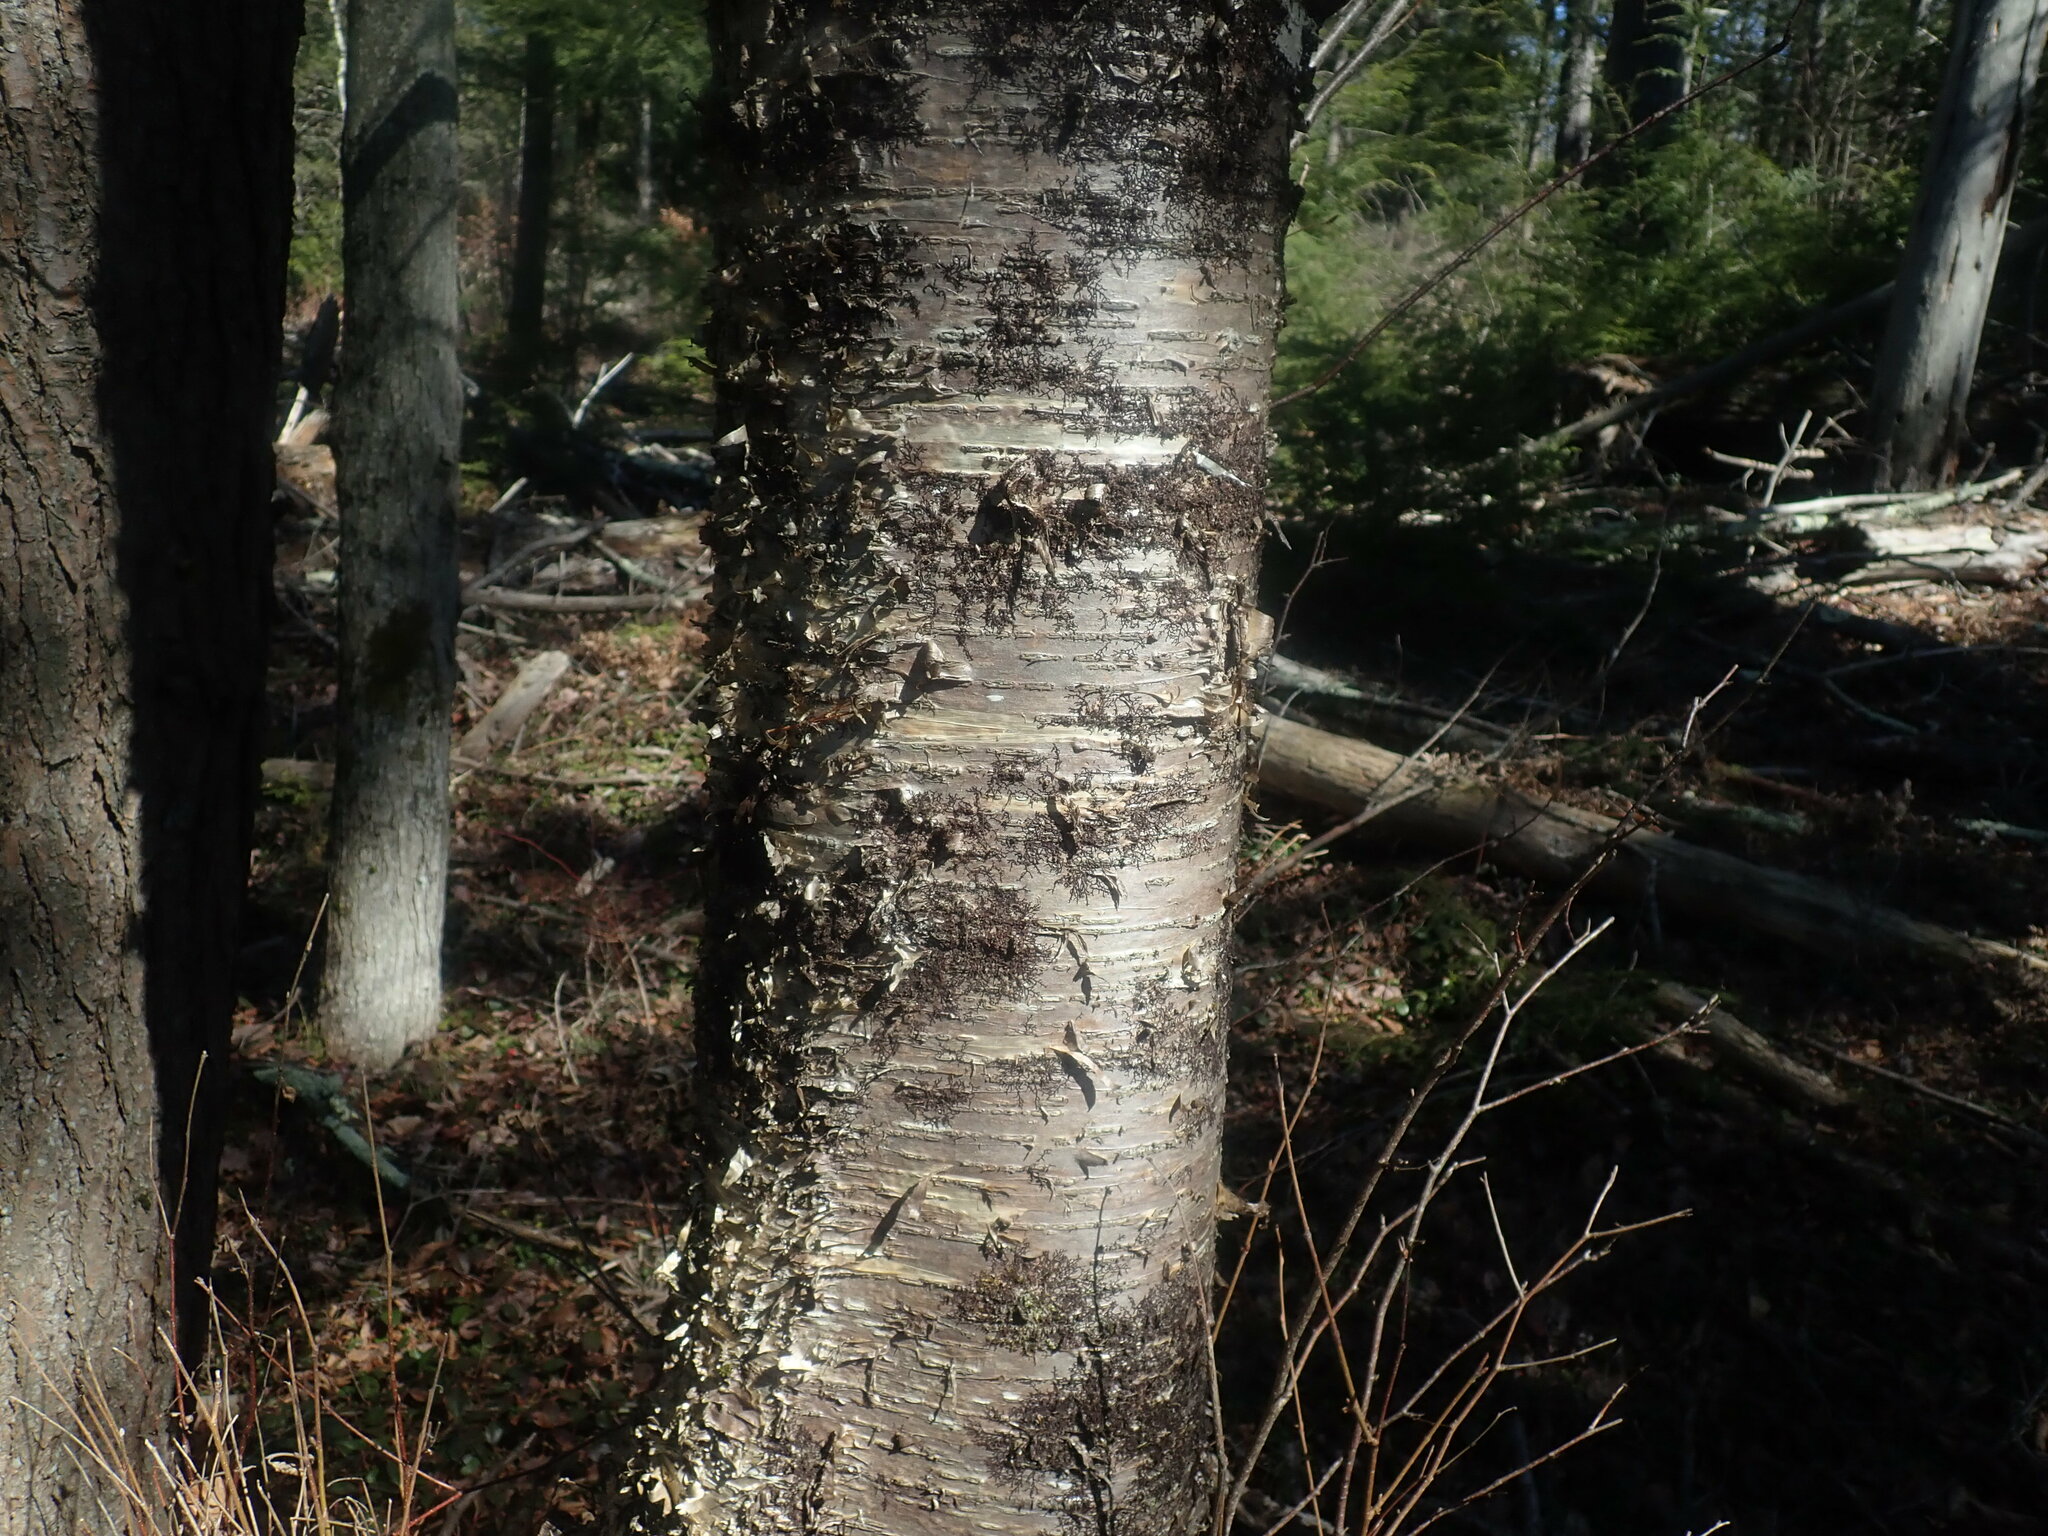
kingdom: Plantae
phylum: Tracheophyta
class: Magnoliopsida
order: Fagales
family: Betulaceae
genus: Betula
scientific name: Betula alleghaniensis
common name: Yellow birch
